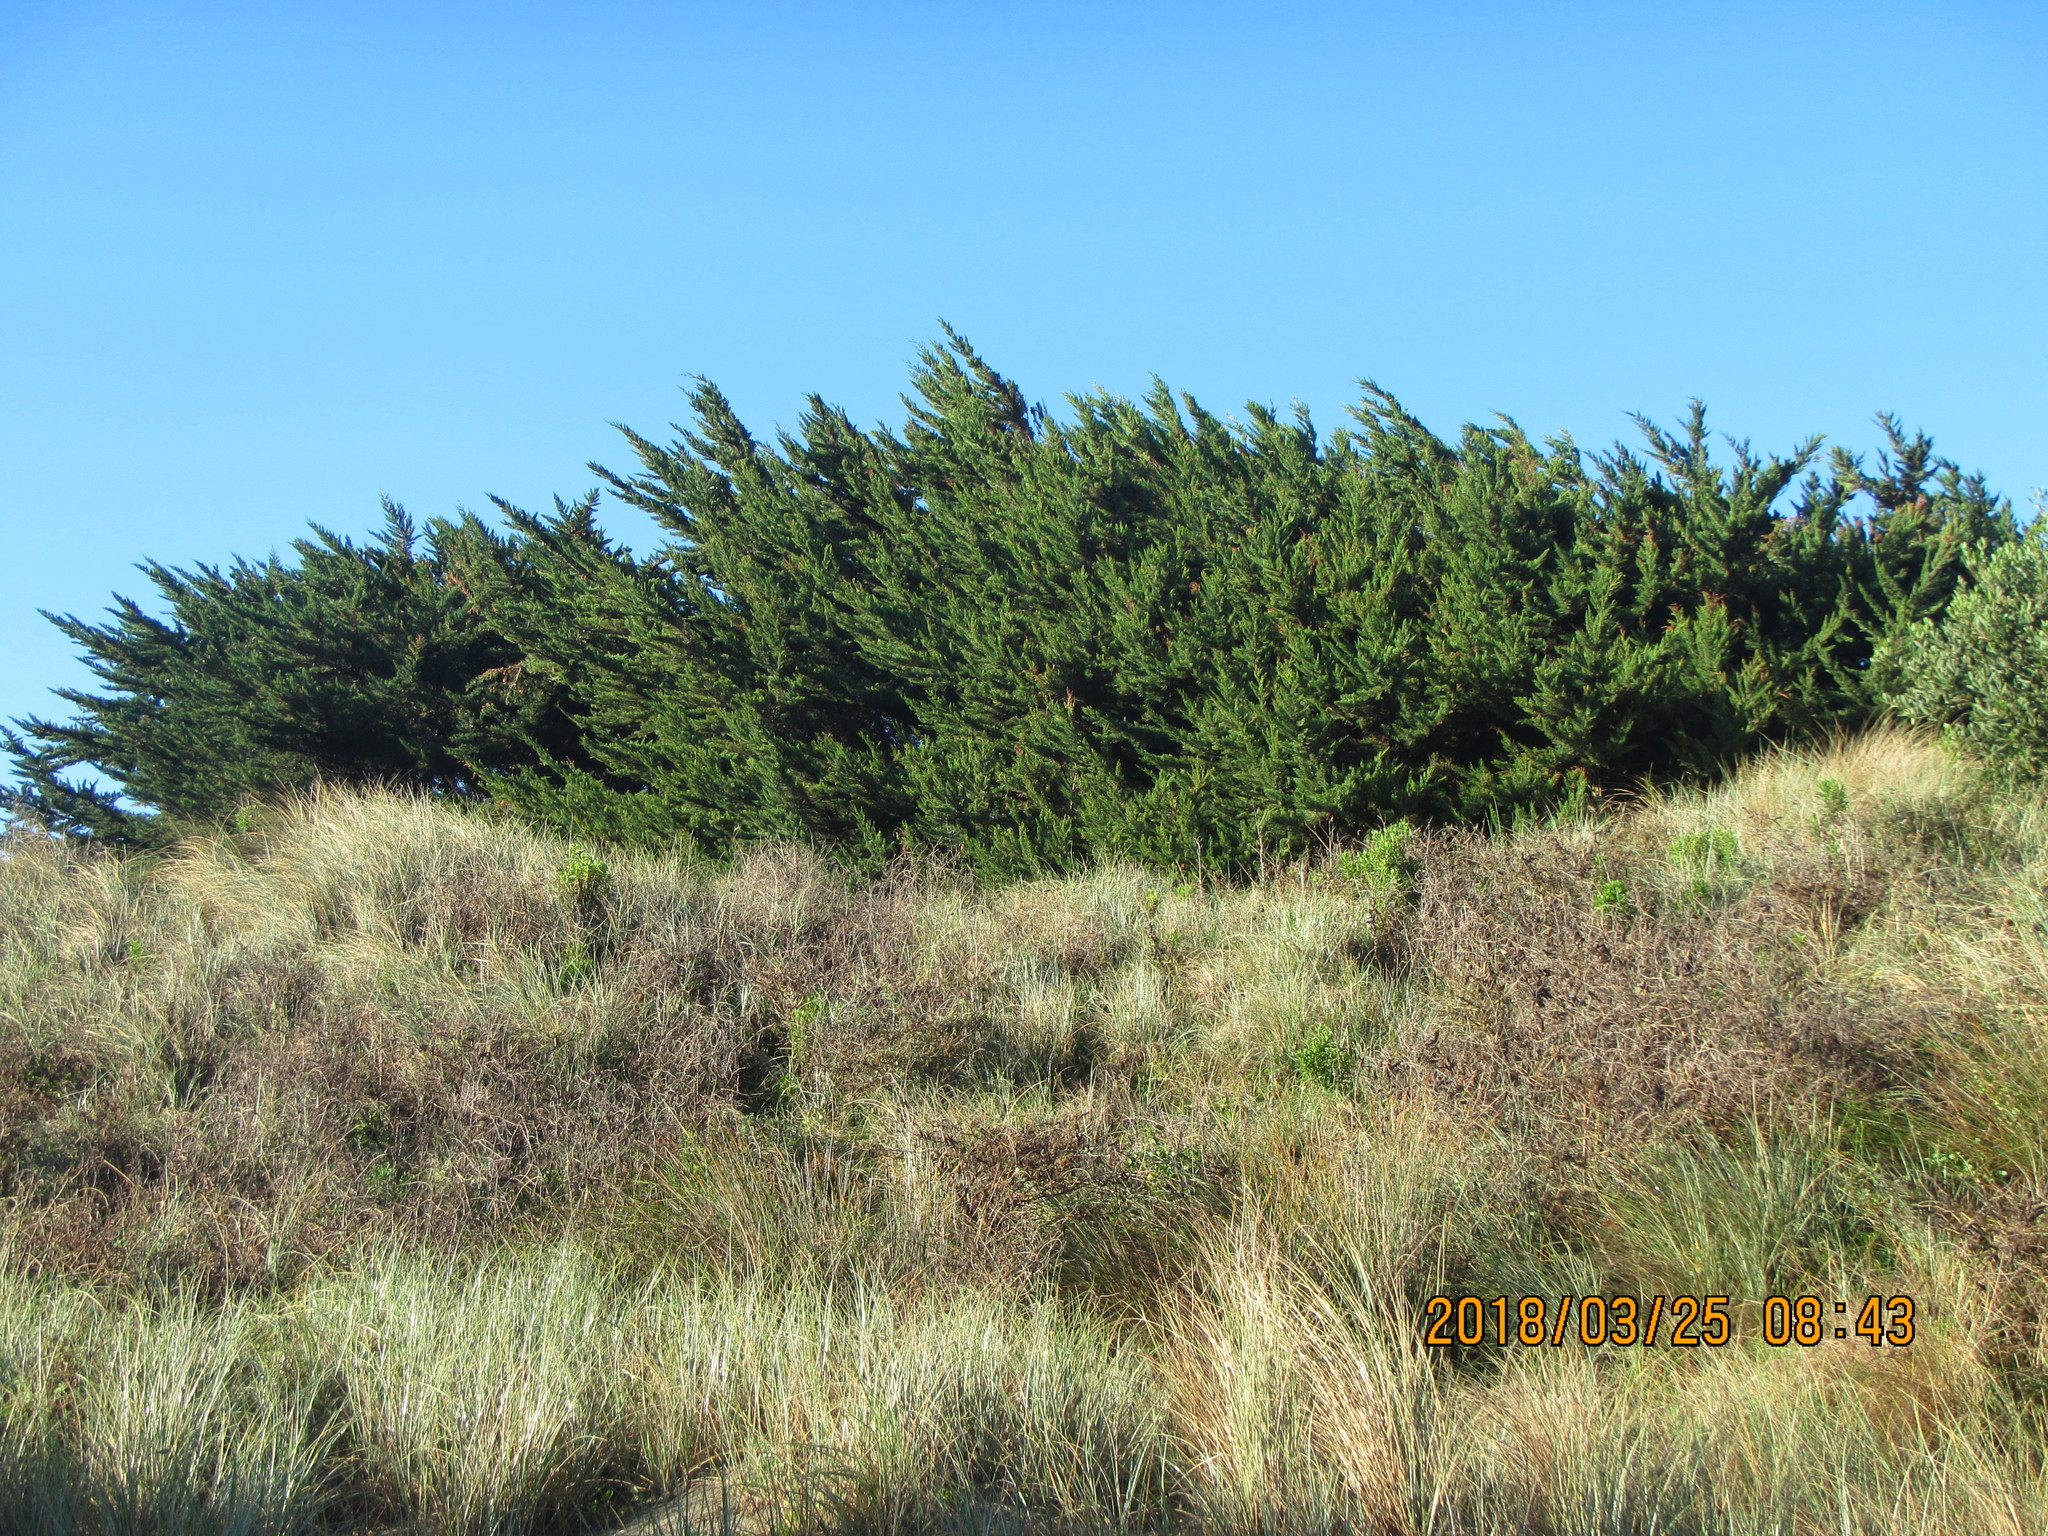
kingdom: Plantae
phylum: Tracheophyta
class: Pinopsida
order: Pinales
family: Cupressaceae
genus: Cupressus
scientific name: Cupressus macrocarpa
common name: Monterey cypress
